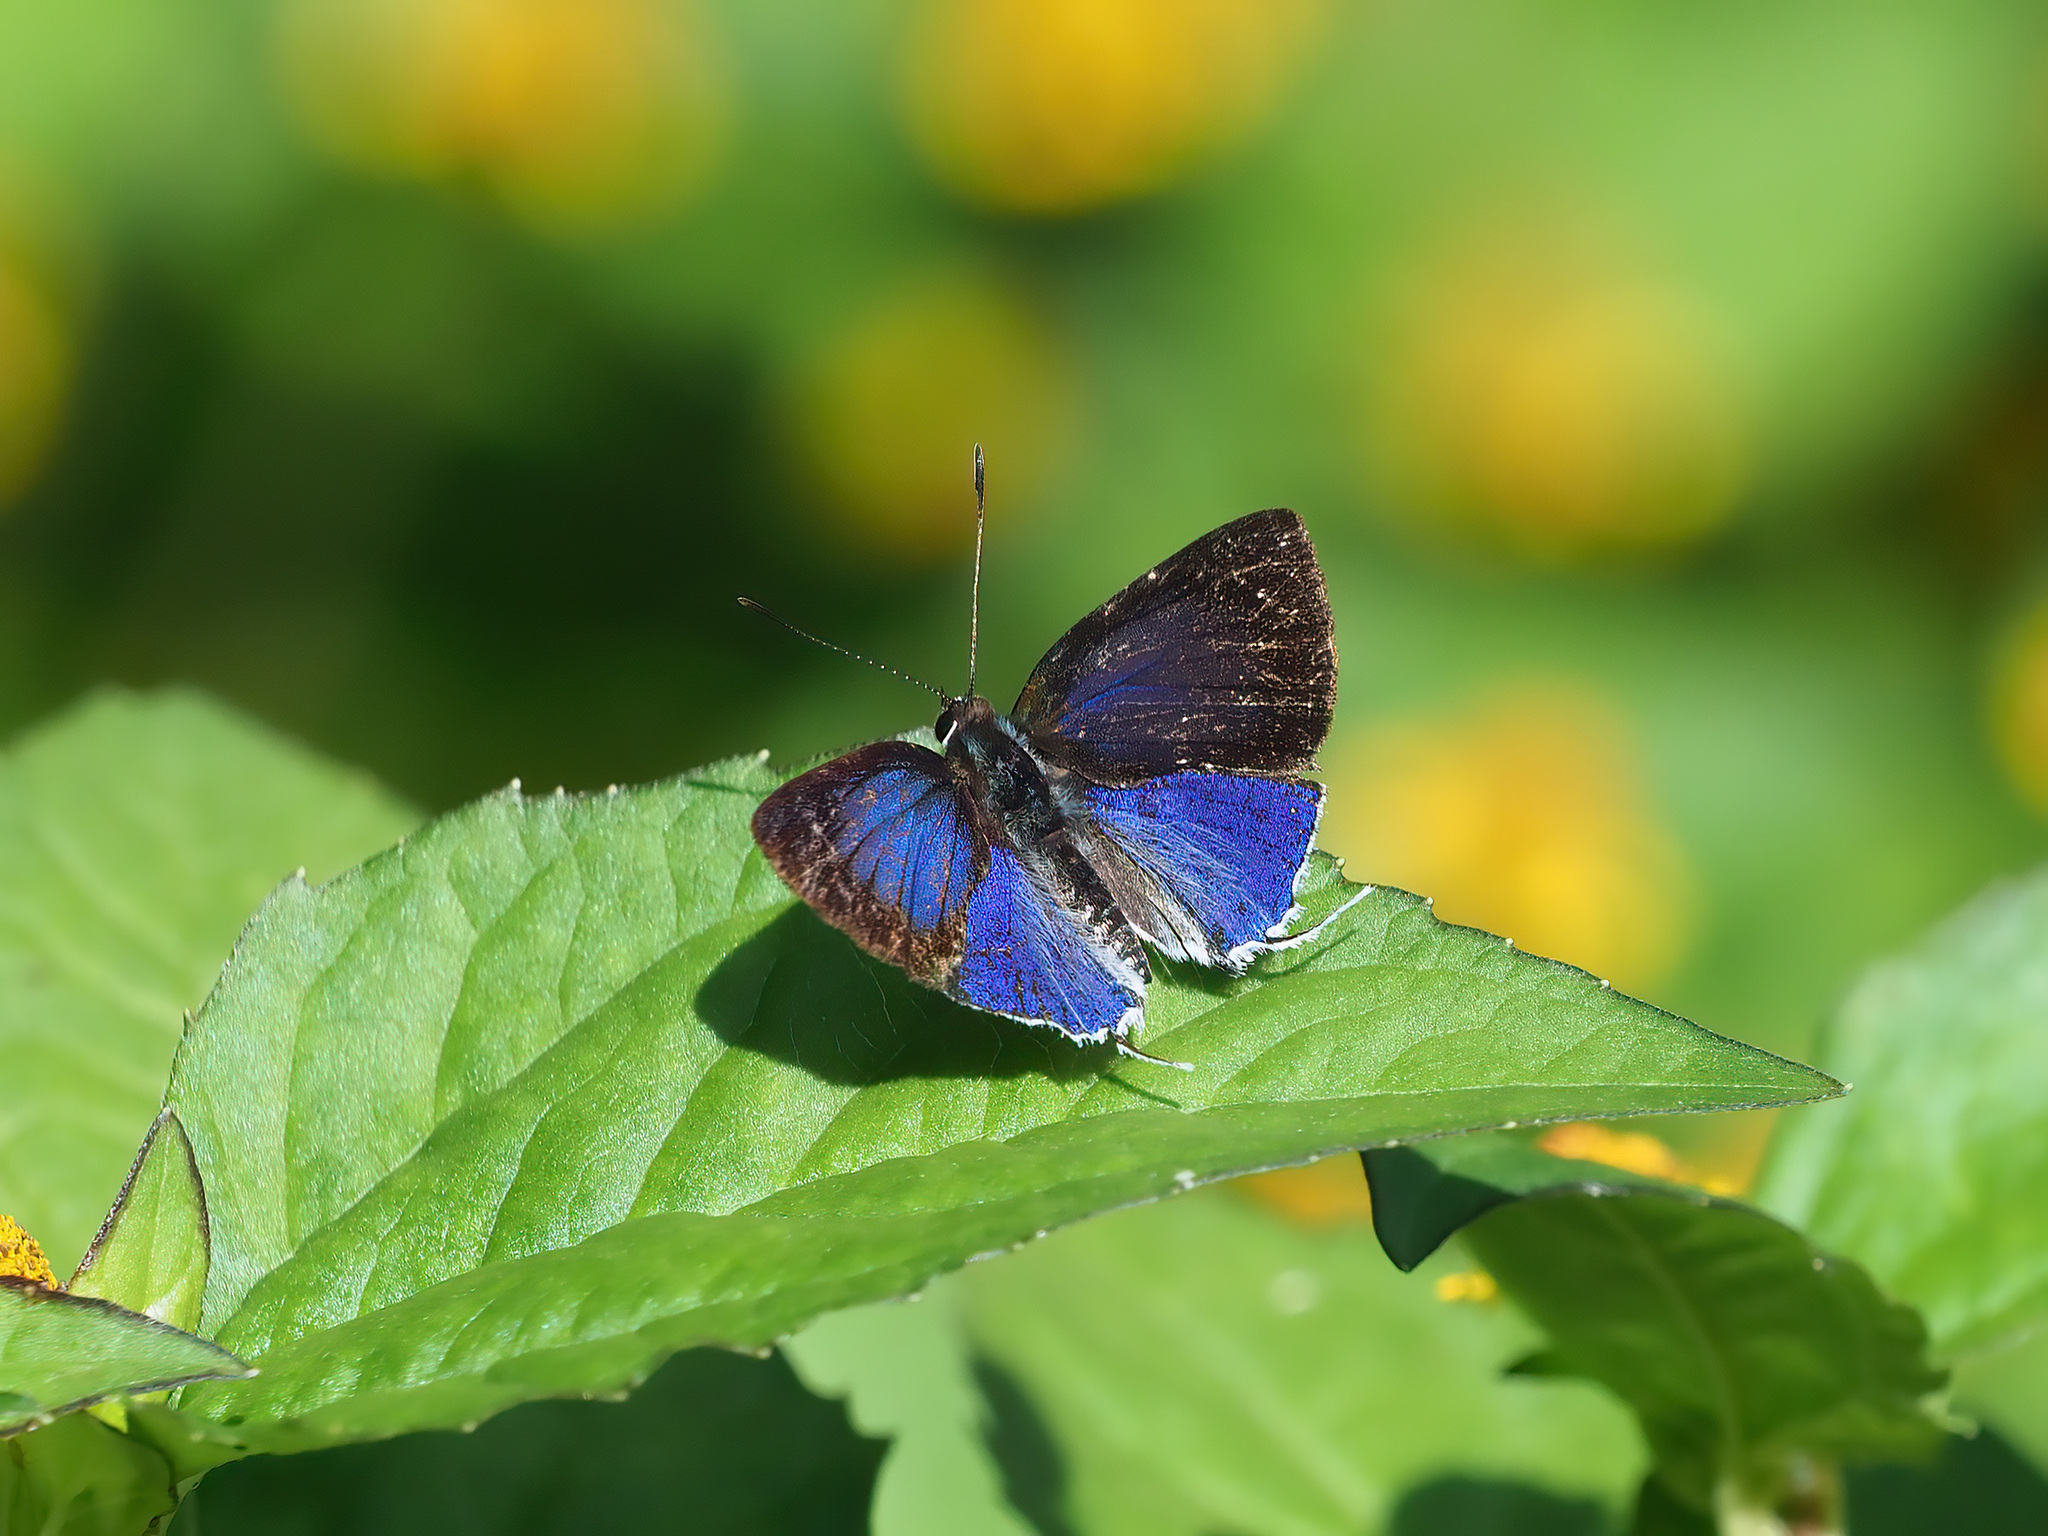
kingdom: Animalia
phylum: Arthropoda
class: Insecta
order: Lepidoptera
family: Lycaenidae
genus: Sinthusa
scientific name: Sinthusa privata
